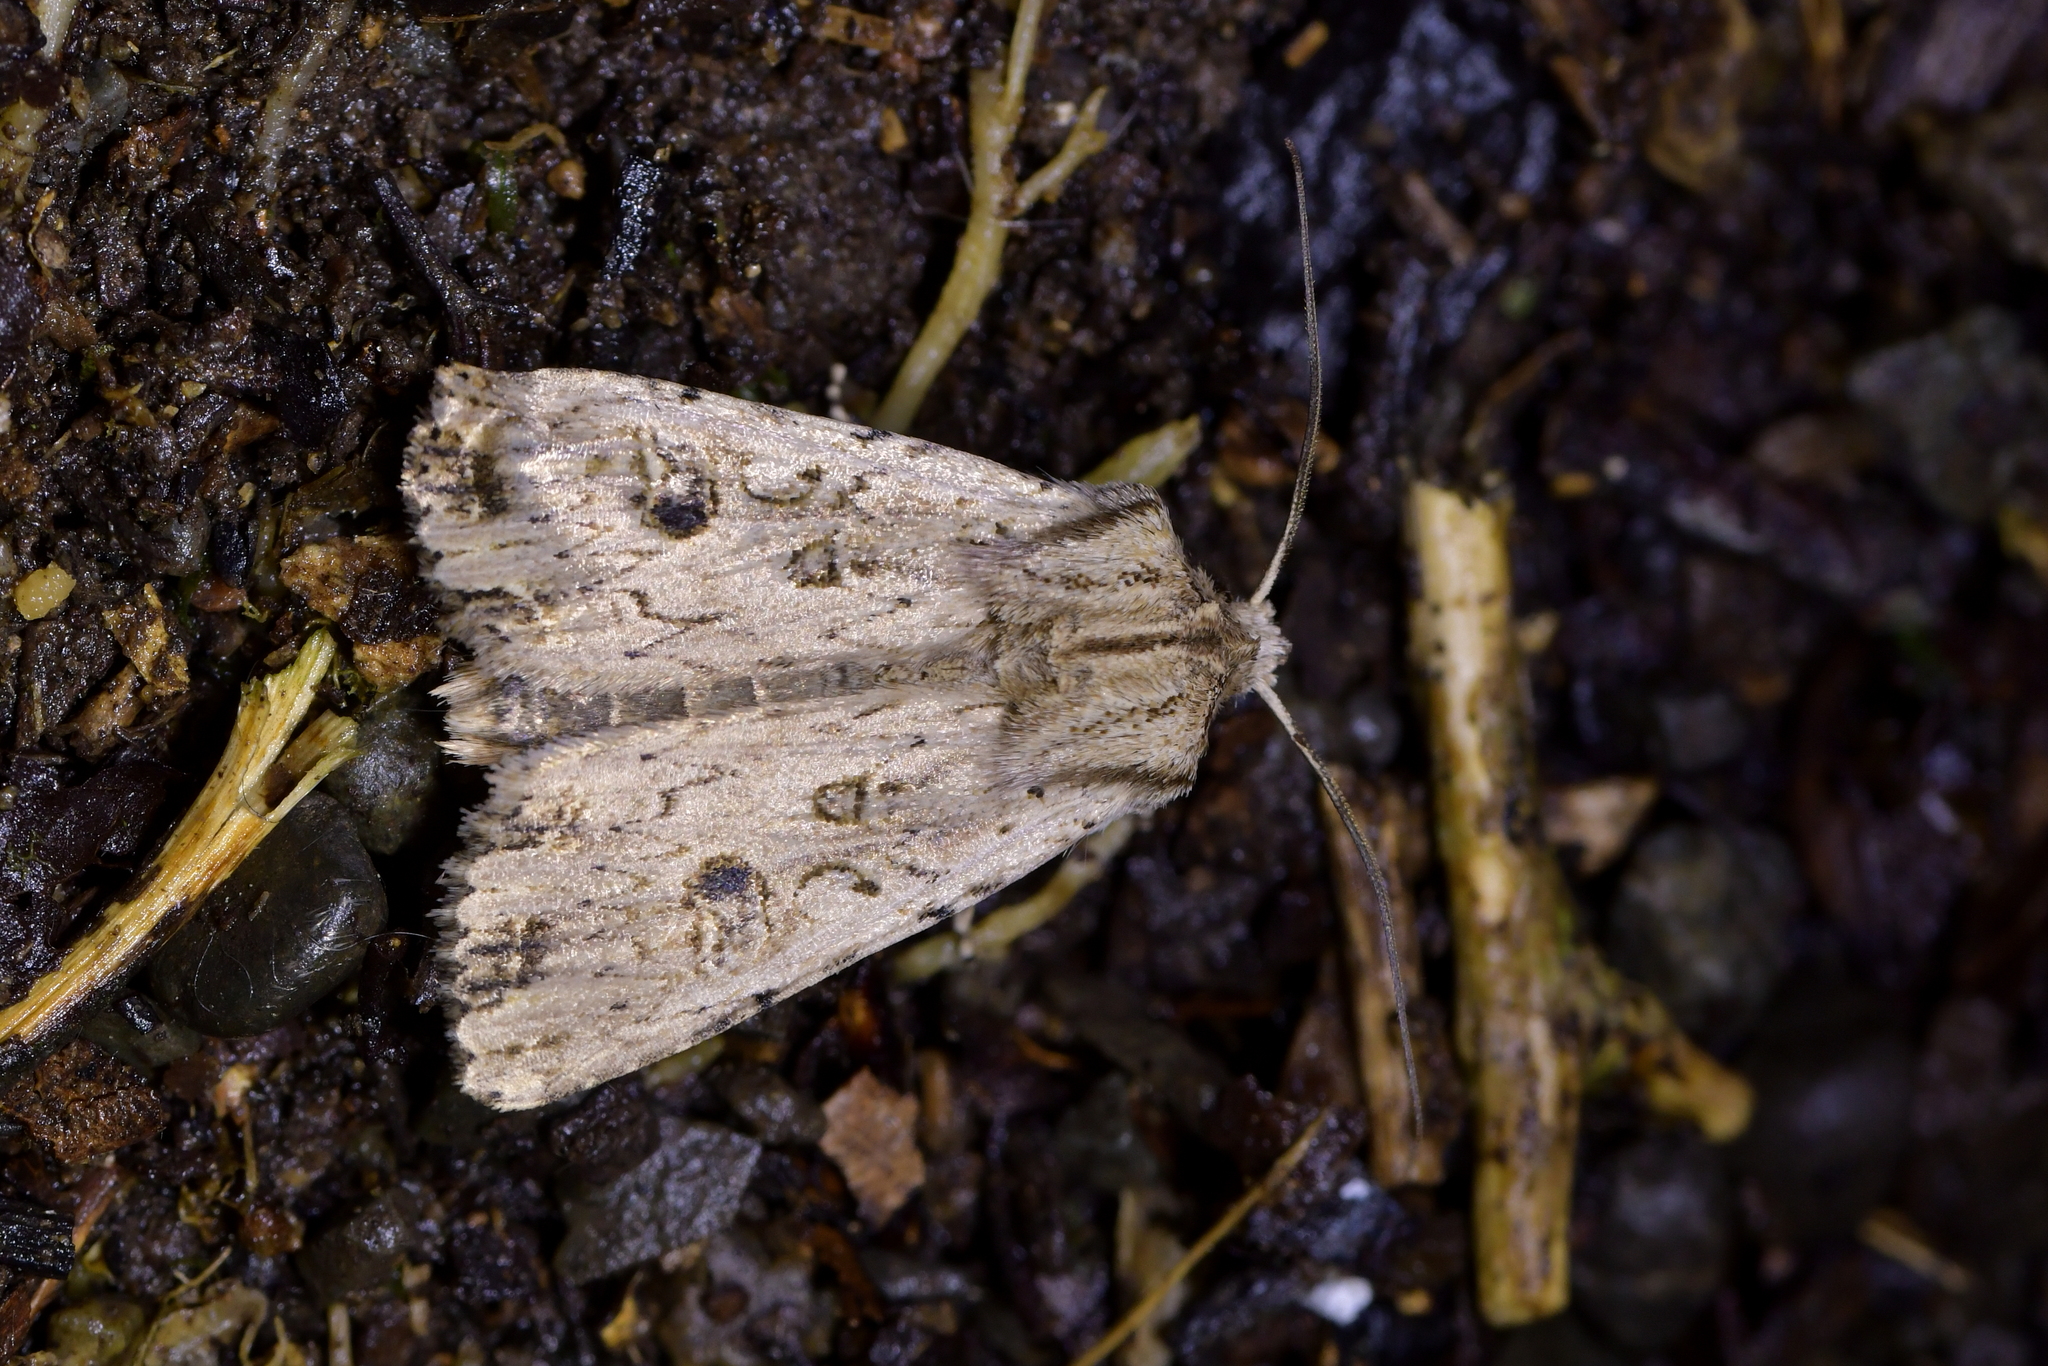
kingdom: Animalia
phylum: Arthropoda
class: Insecta
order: Lepidoptera
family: Noctuidae
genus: Ichneutica
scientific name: Ichneutica lignana
